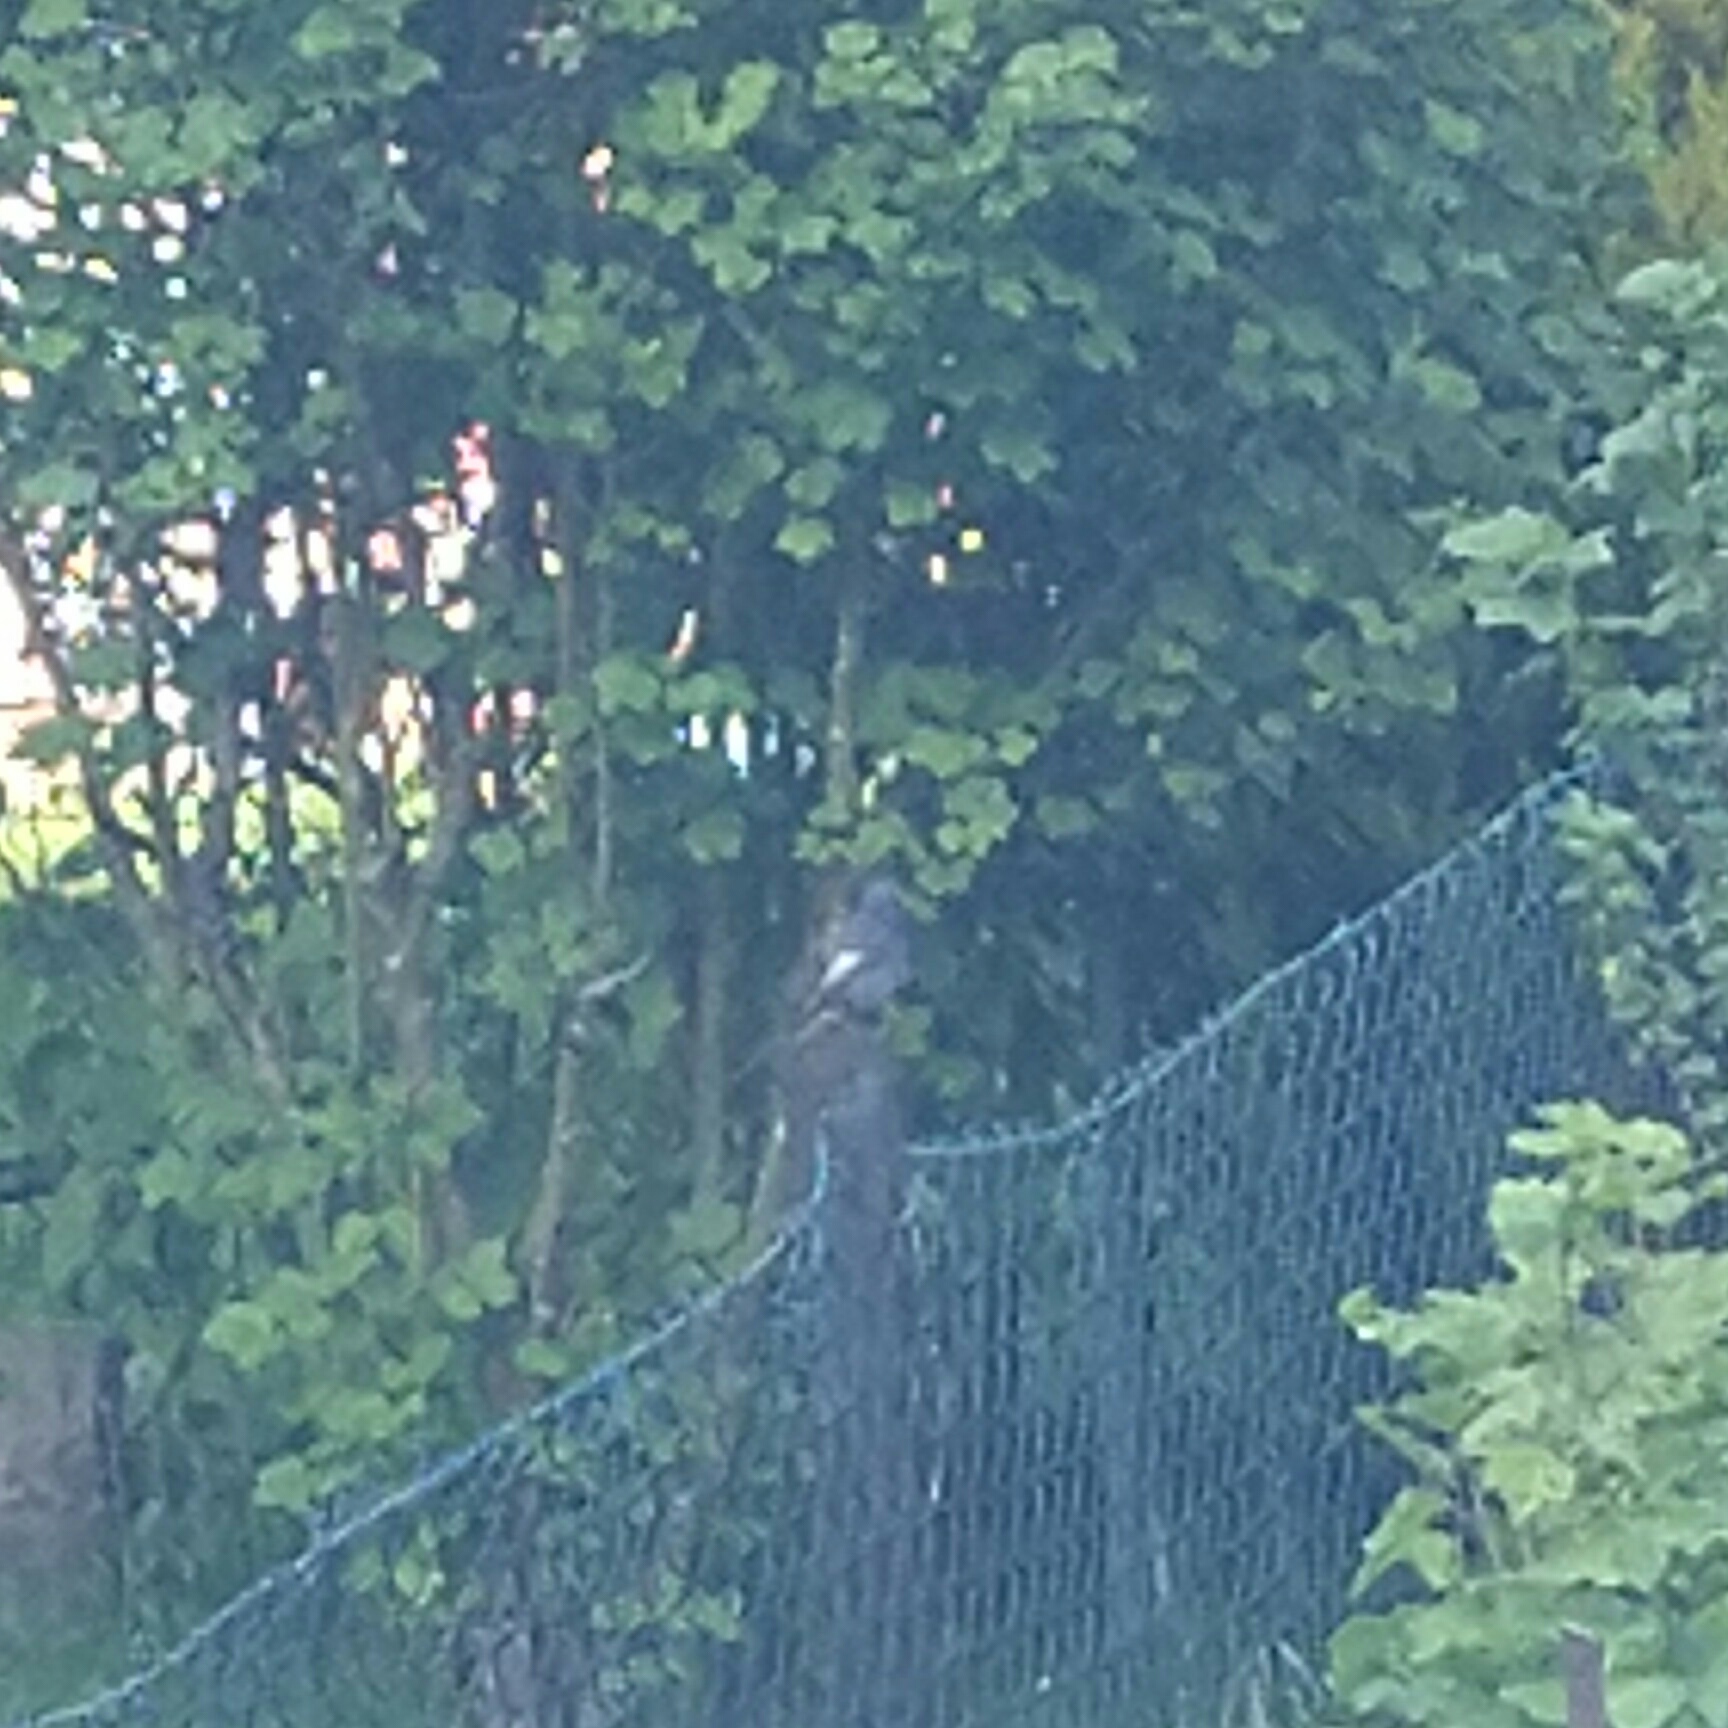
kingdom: Animalia
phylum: Chordata
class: Aves
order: Passeriformes
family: Muscicapidae
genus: Phoenicurus
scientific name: Phoenicurus ochruros
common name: Black redstart
